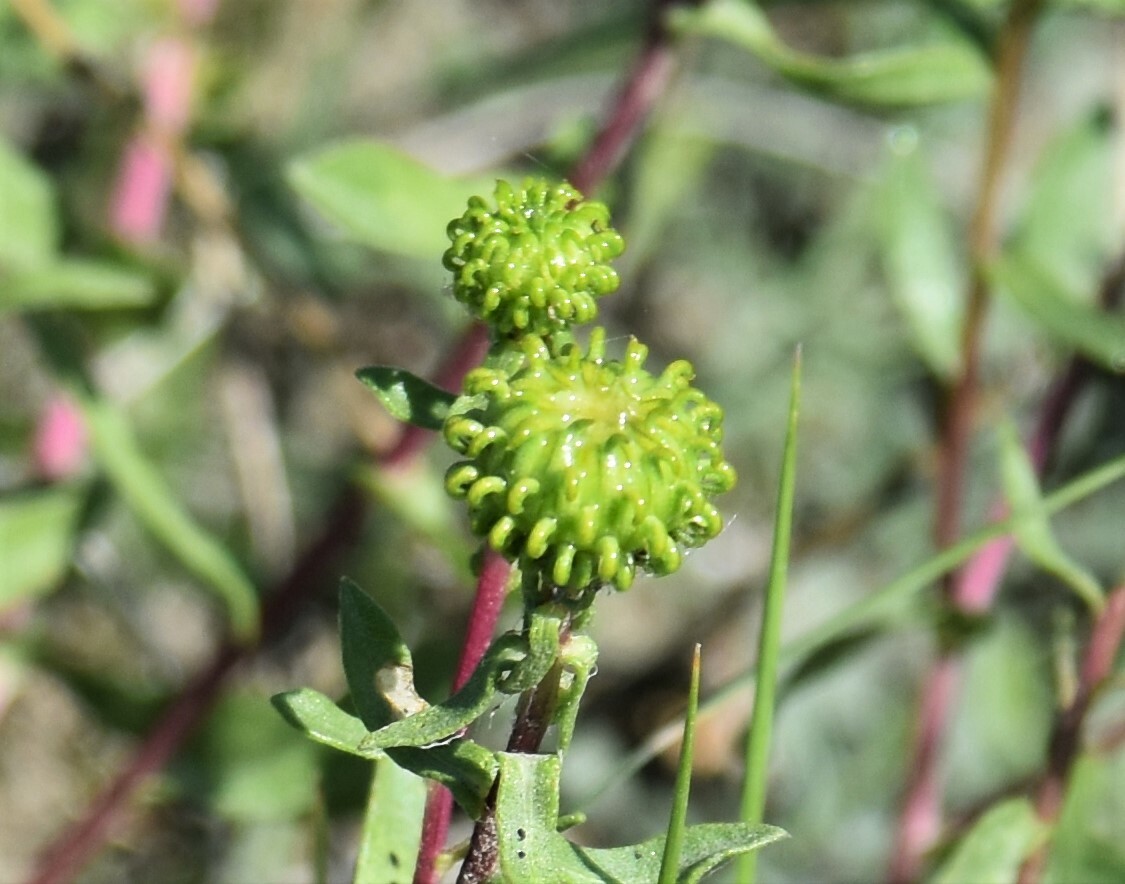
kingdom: Plantae
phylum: Tracheophyta
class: Magnoliopsida
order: Asterales
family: Asteraceae
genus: Grindelia
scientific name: Grindelia squarrosa
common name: Curly-cup gumweed
